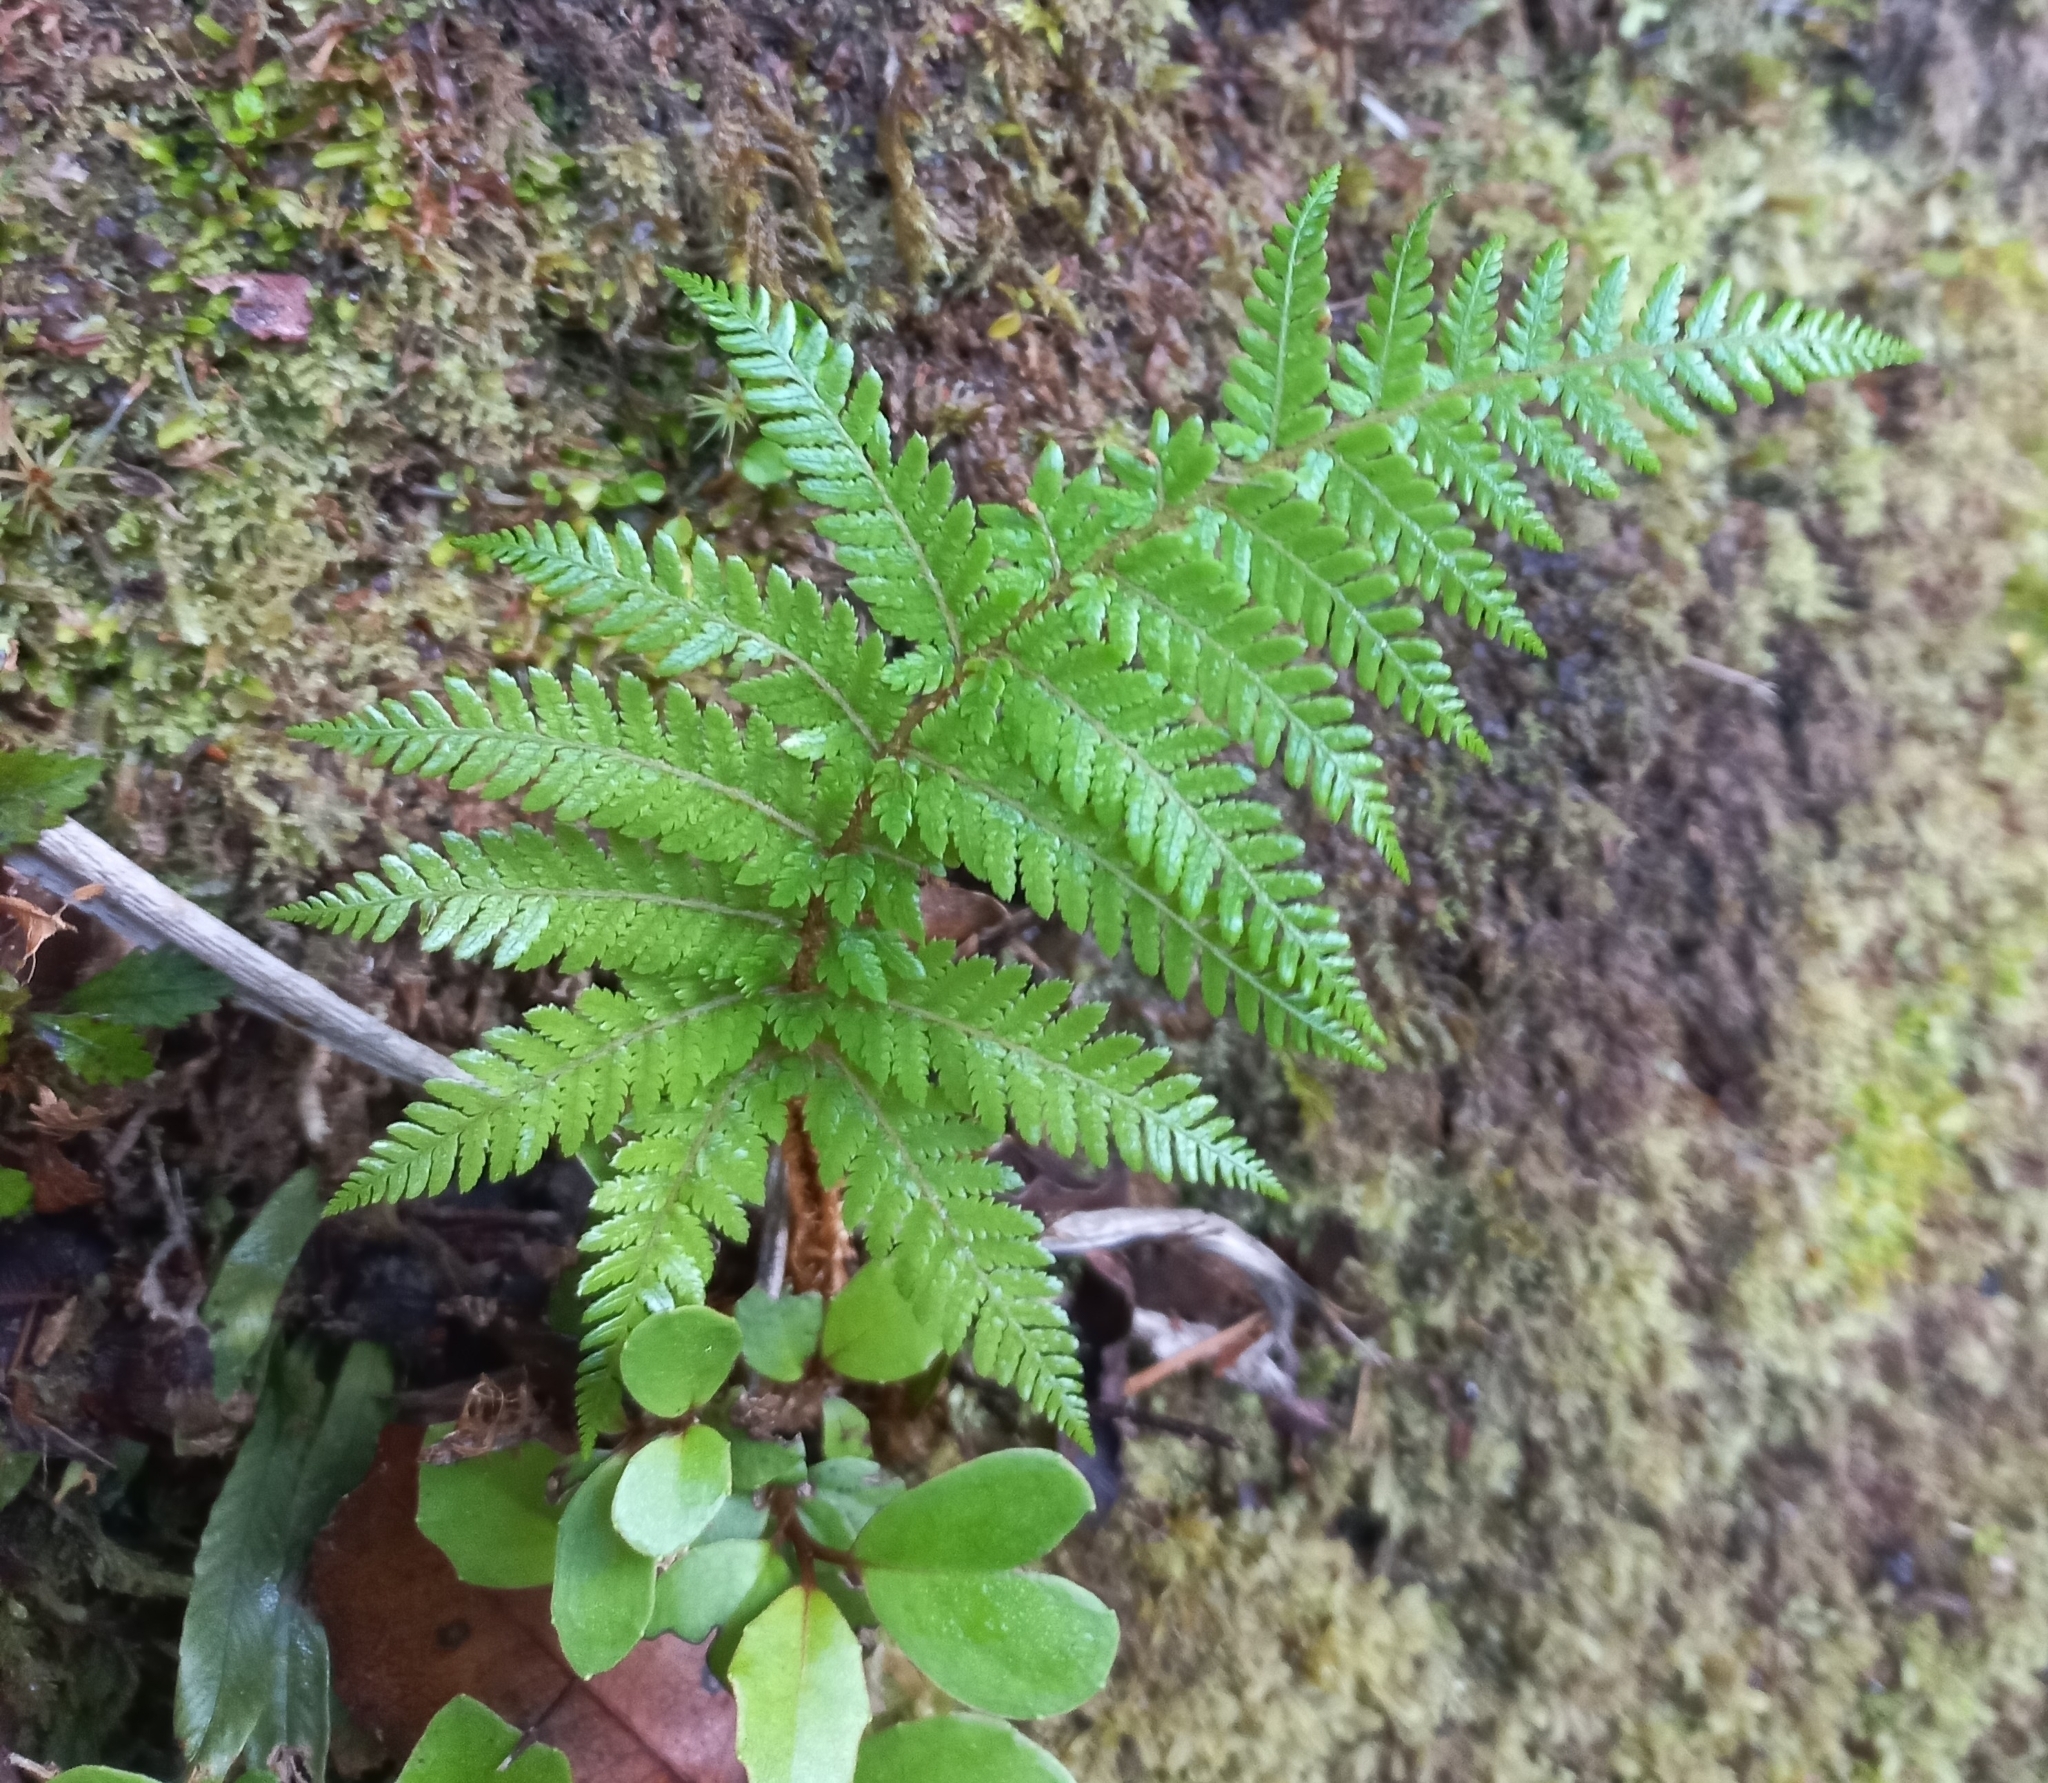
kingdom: Plantae
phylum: Tracheophyta
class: Polypodiopsida
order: Cyatheales
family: Cyatheaceae
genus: Alsophila
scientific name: Alsophila smithii
